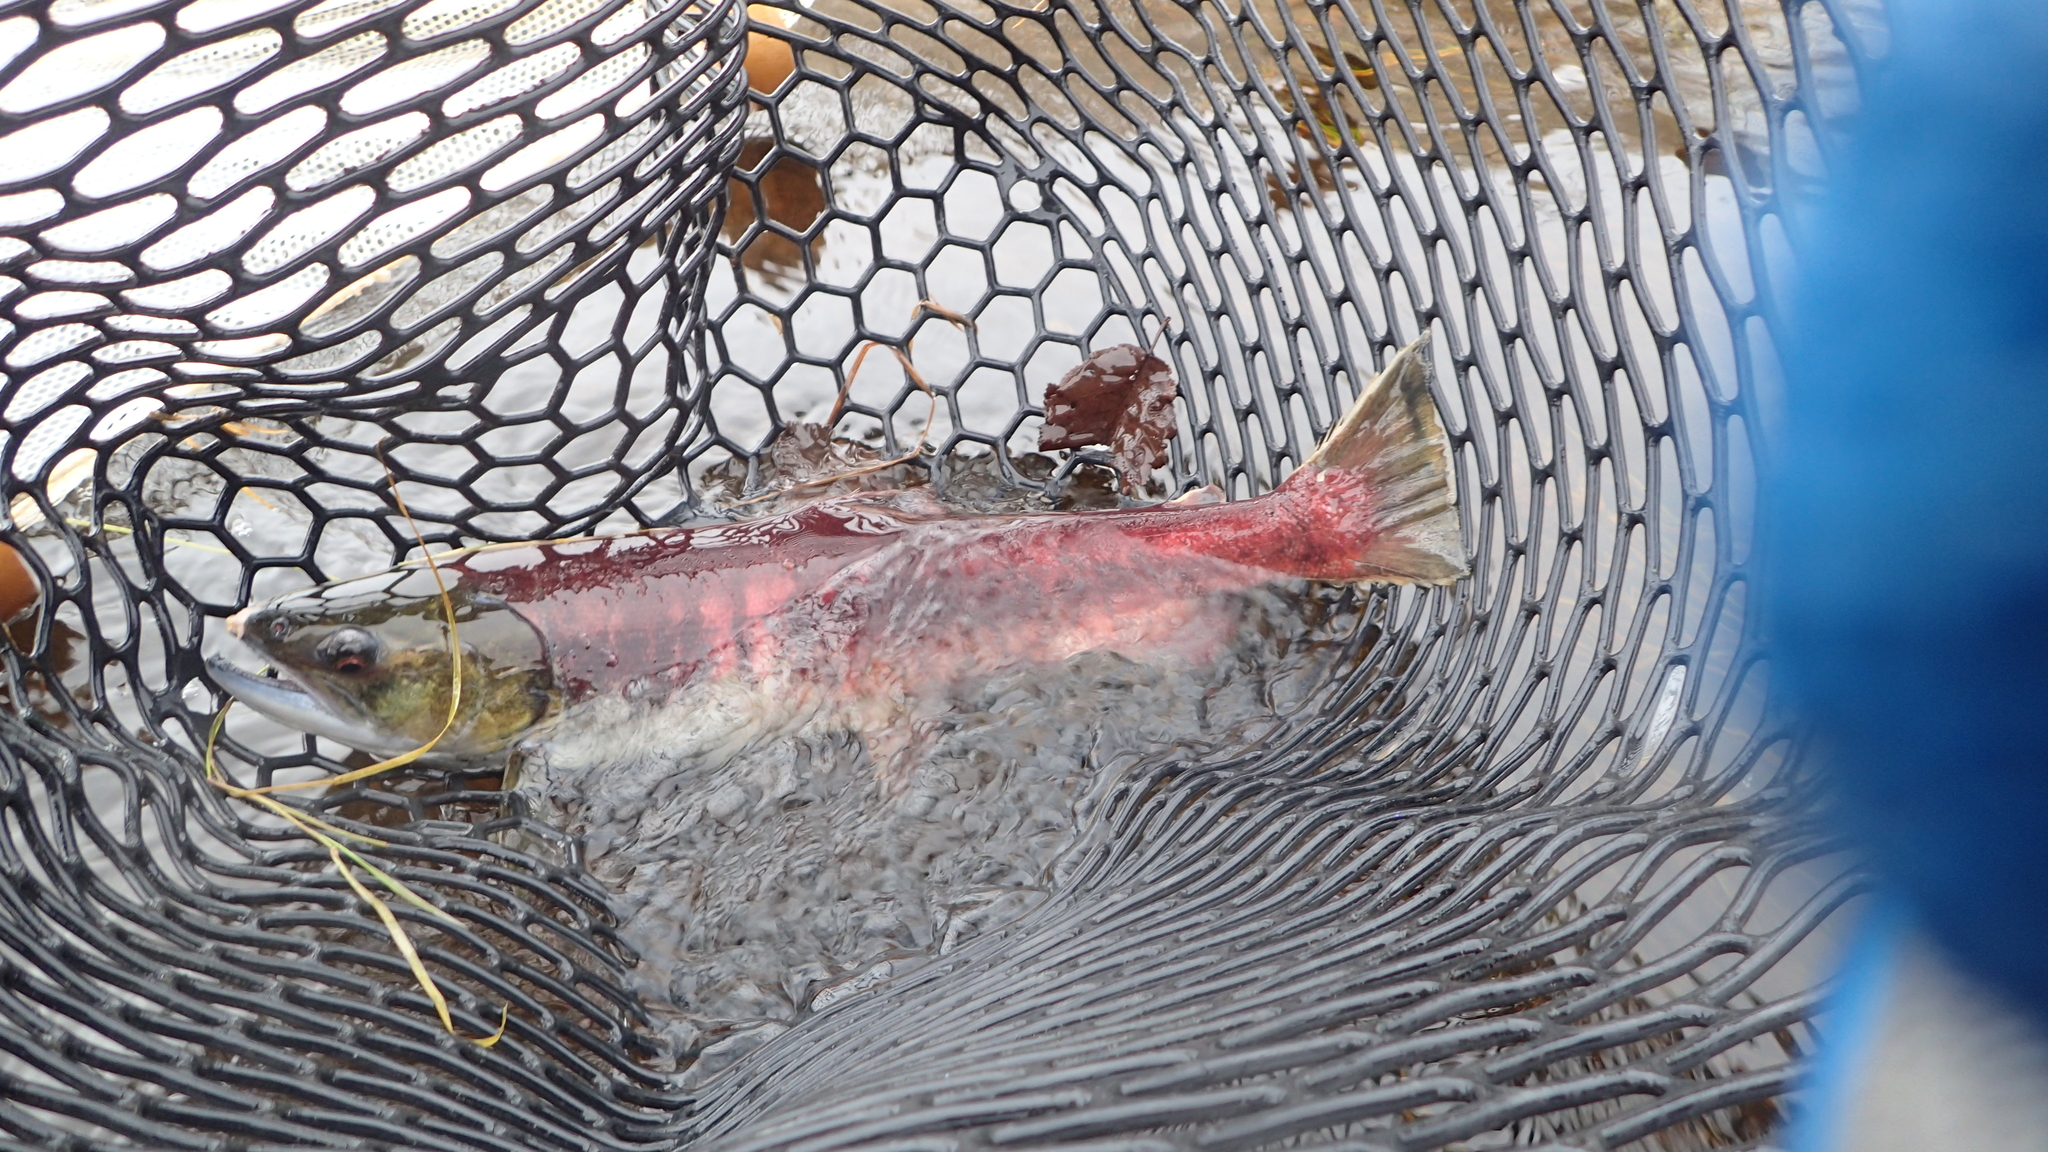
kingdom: Animalia
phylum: Chordata
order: Salmoniformes
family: Salmonidae
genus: Oncorhynchus
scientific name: Oncorhynchus nerka
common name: Sockeye salmon
